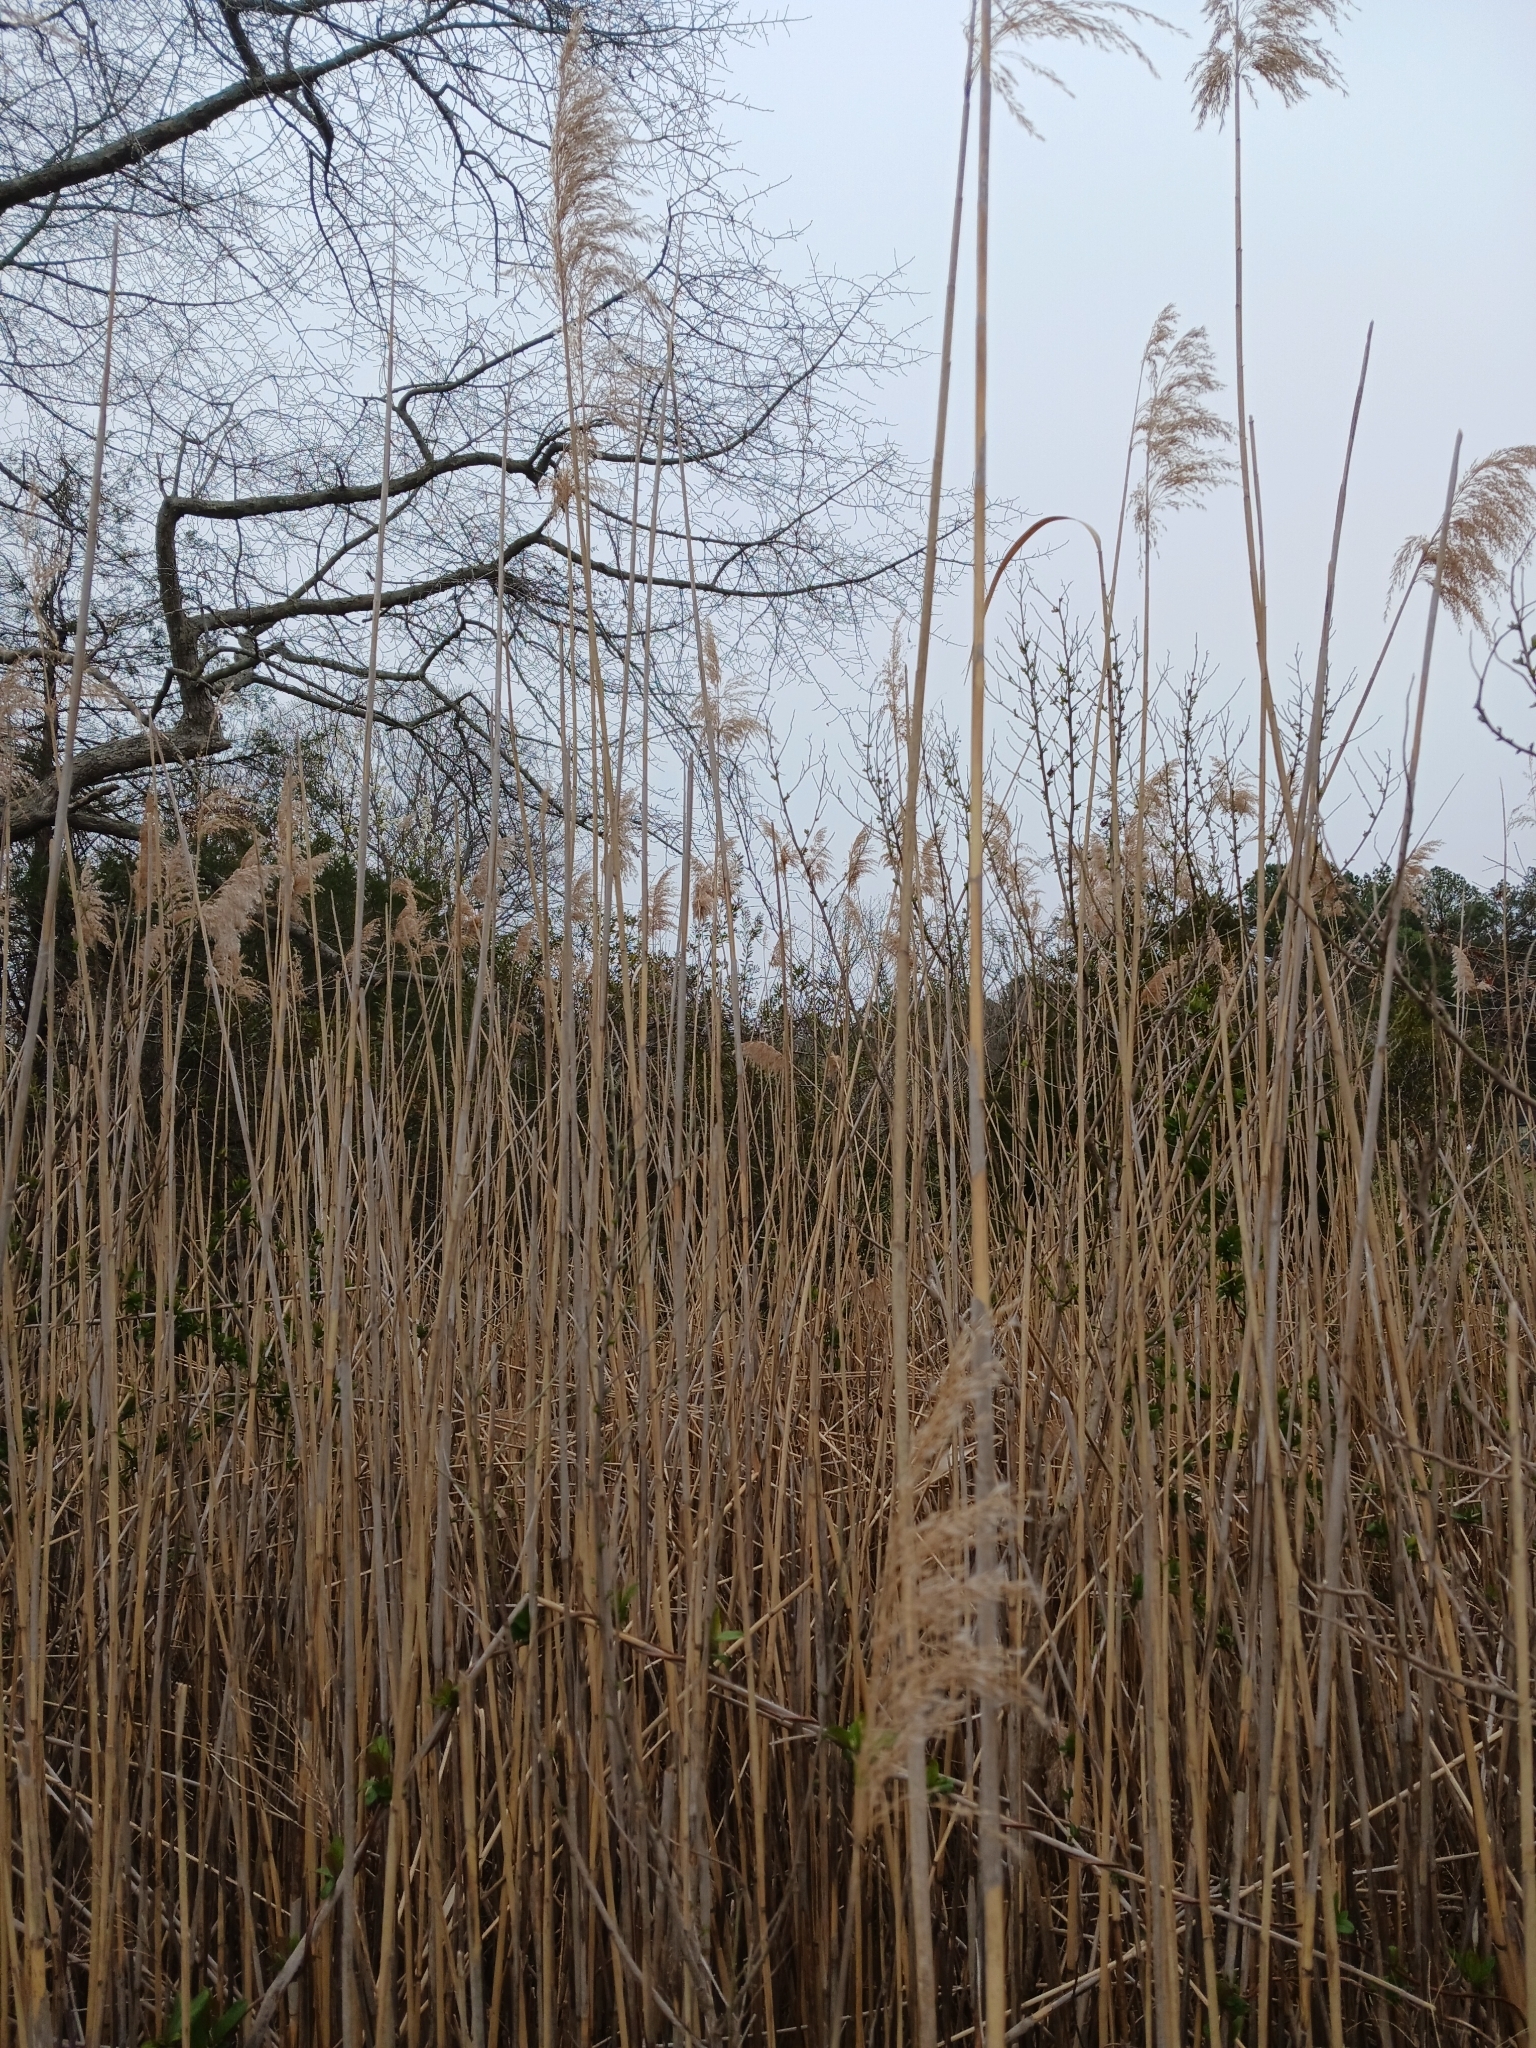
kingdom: Plantae
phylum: Tracheophyta
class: Liliopsida
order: Poales
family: Poaceae
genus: Phragmites
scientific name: Phragmites australis
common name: Common reed
